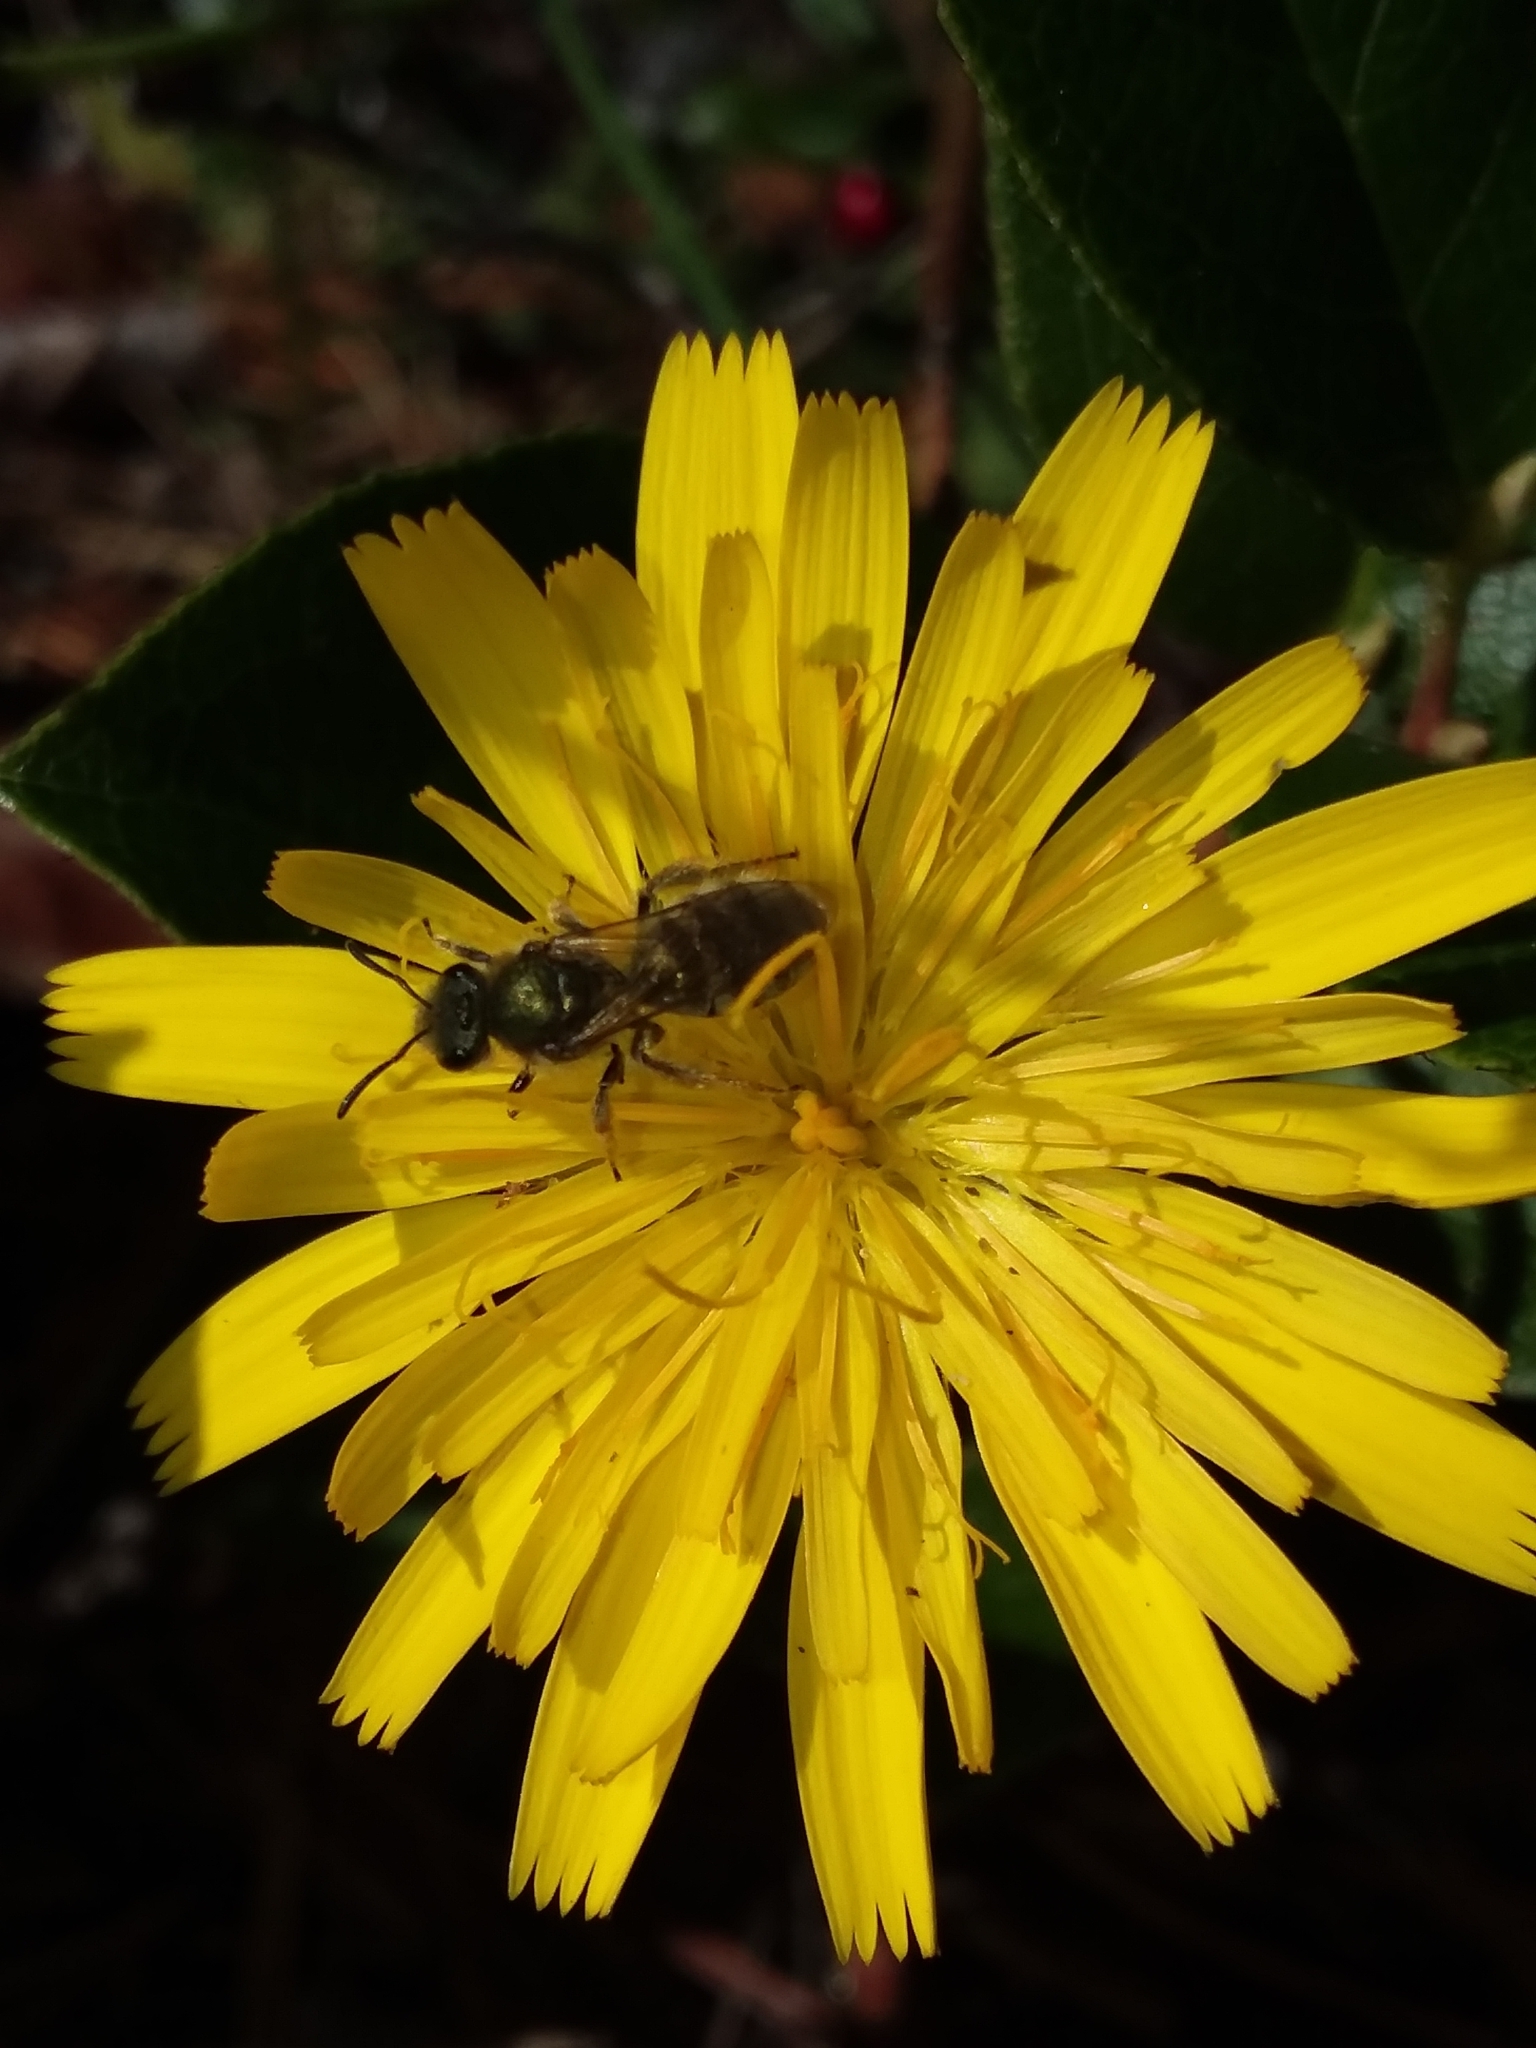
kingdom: Animalia
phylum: Arthropoda
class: Insecta
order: Hymenoptera
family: Halictidae
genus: Lasioglossum
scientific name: Lasioglossum pavonotum
